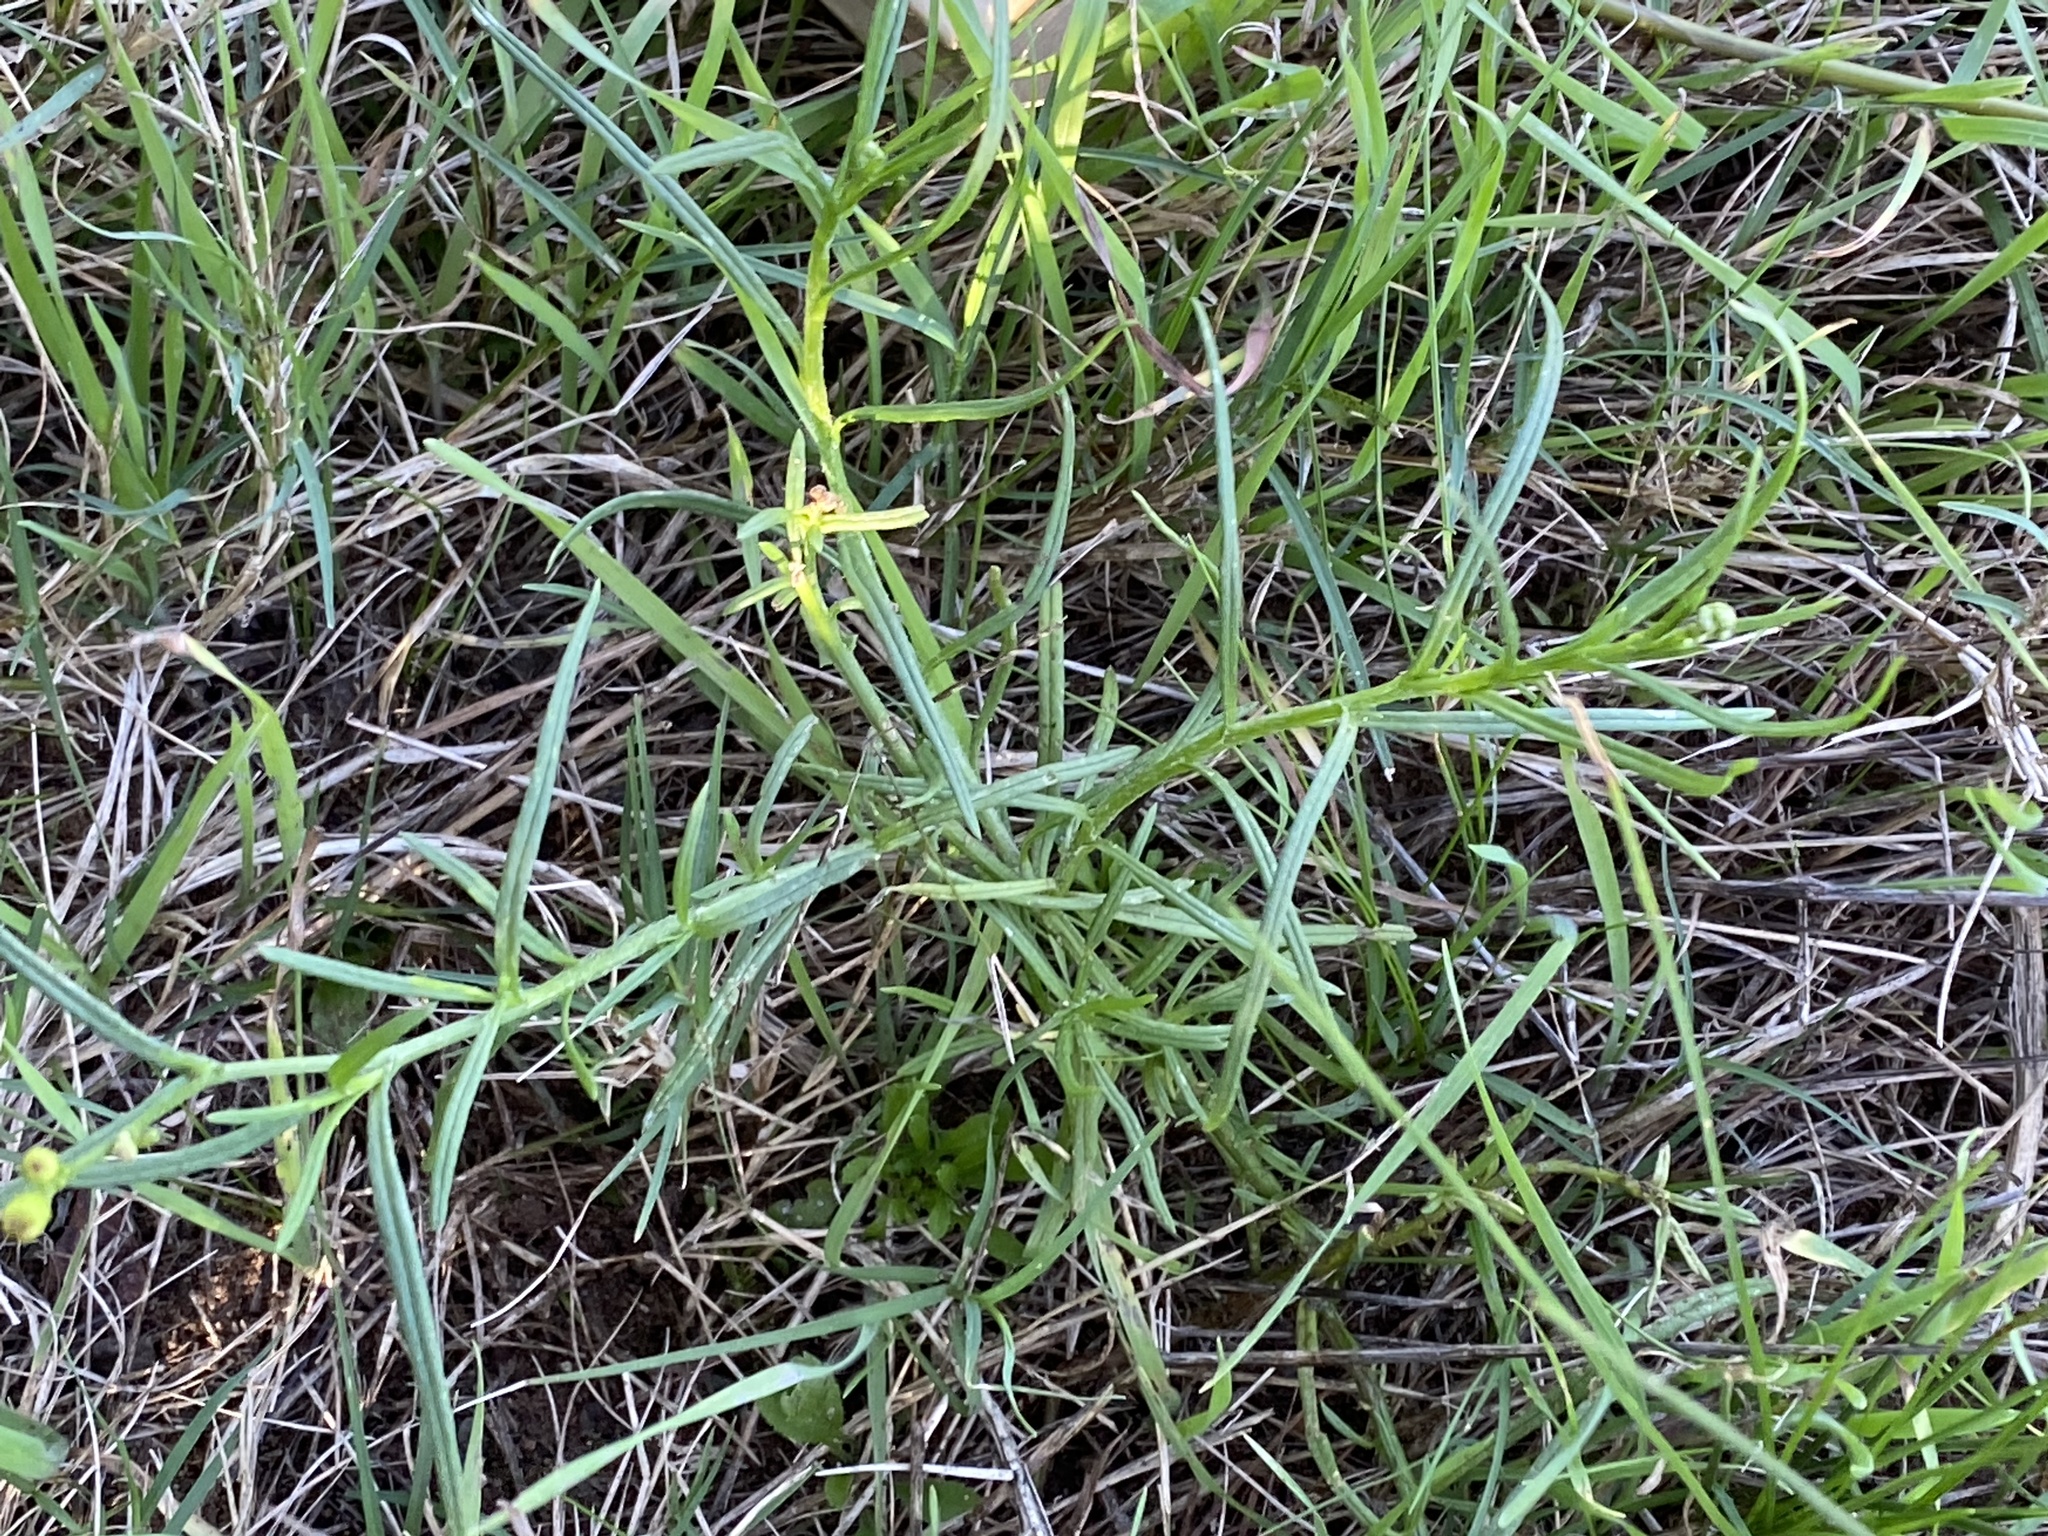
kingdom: Plantae
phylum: Tracheophyta
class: Magnoliopsida
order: Asterales
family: Asteraceae
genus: Senecio
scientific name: Senecio inaequidens
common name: Narrow-leaved ragwort
